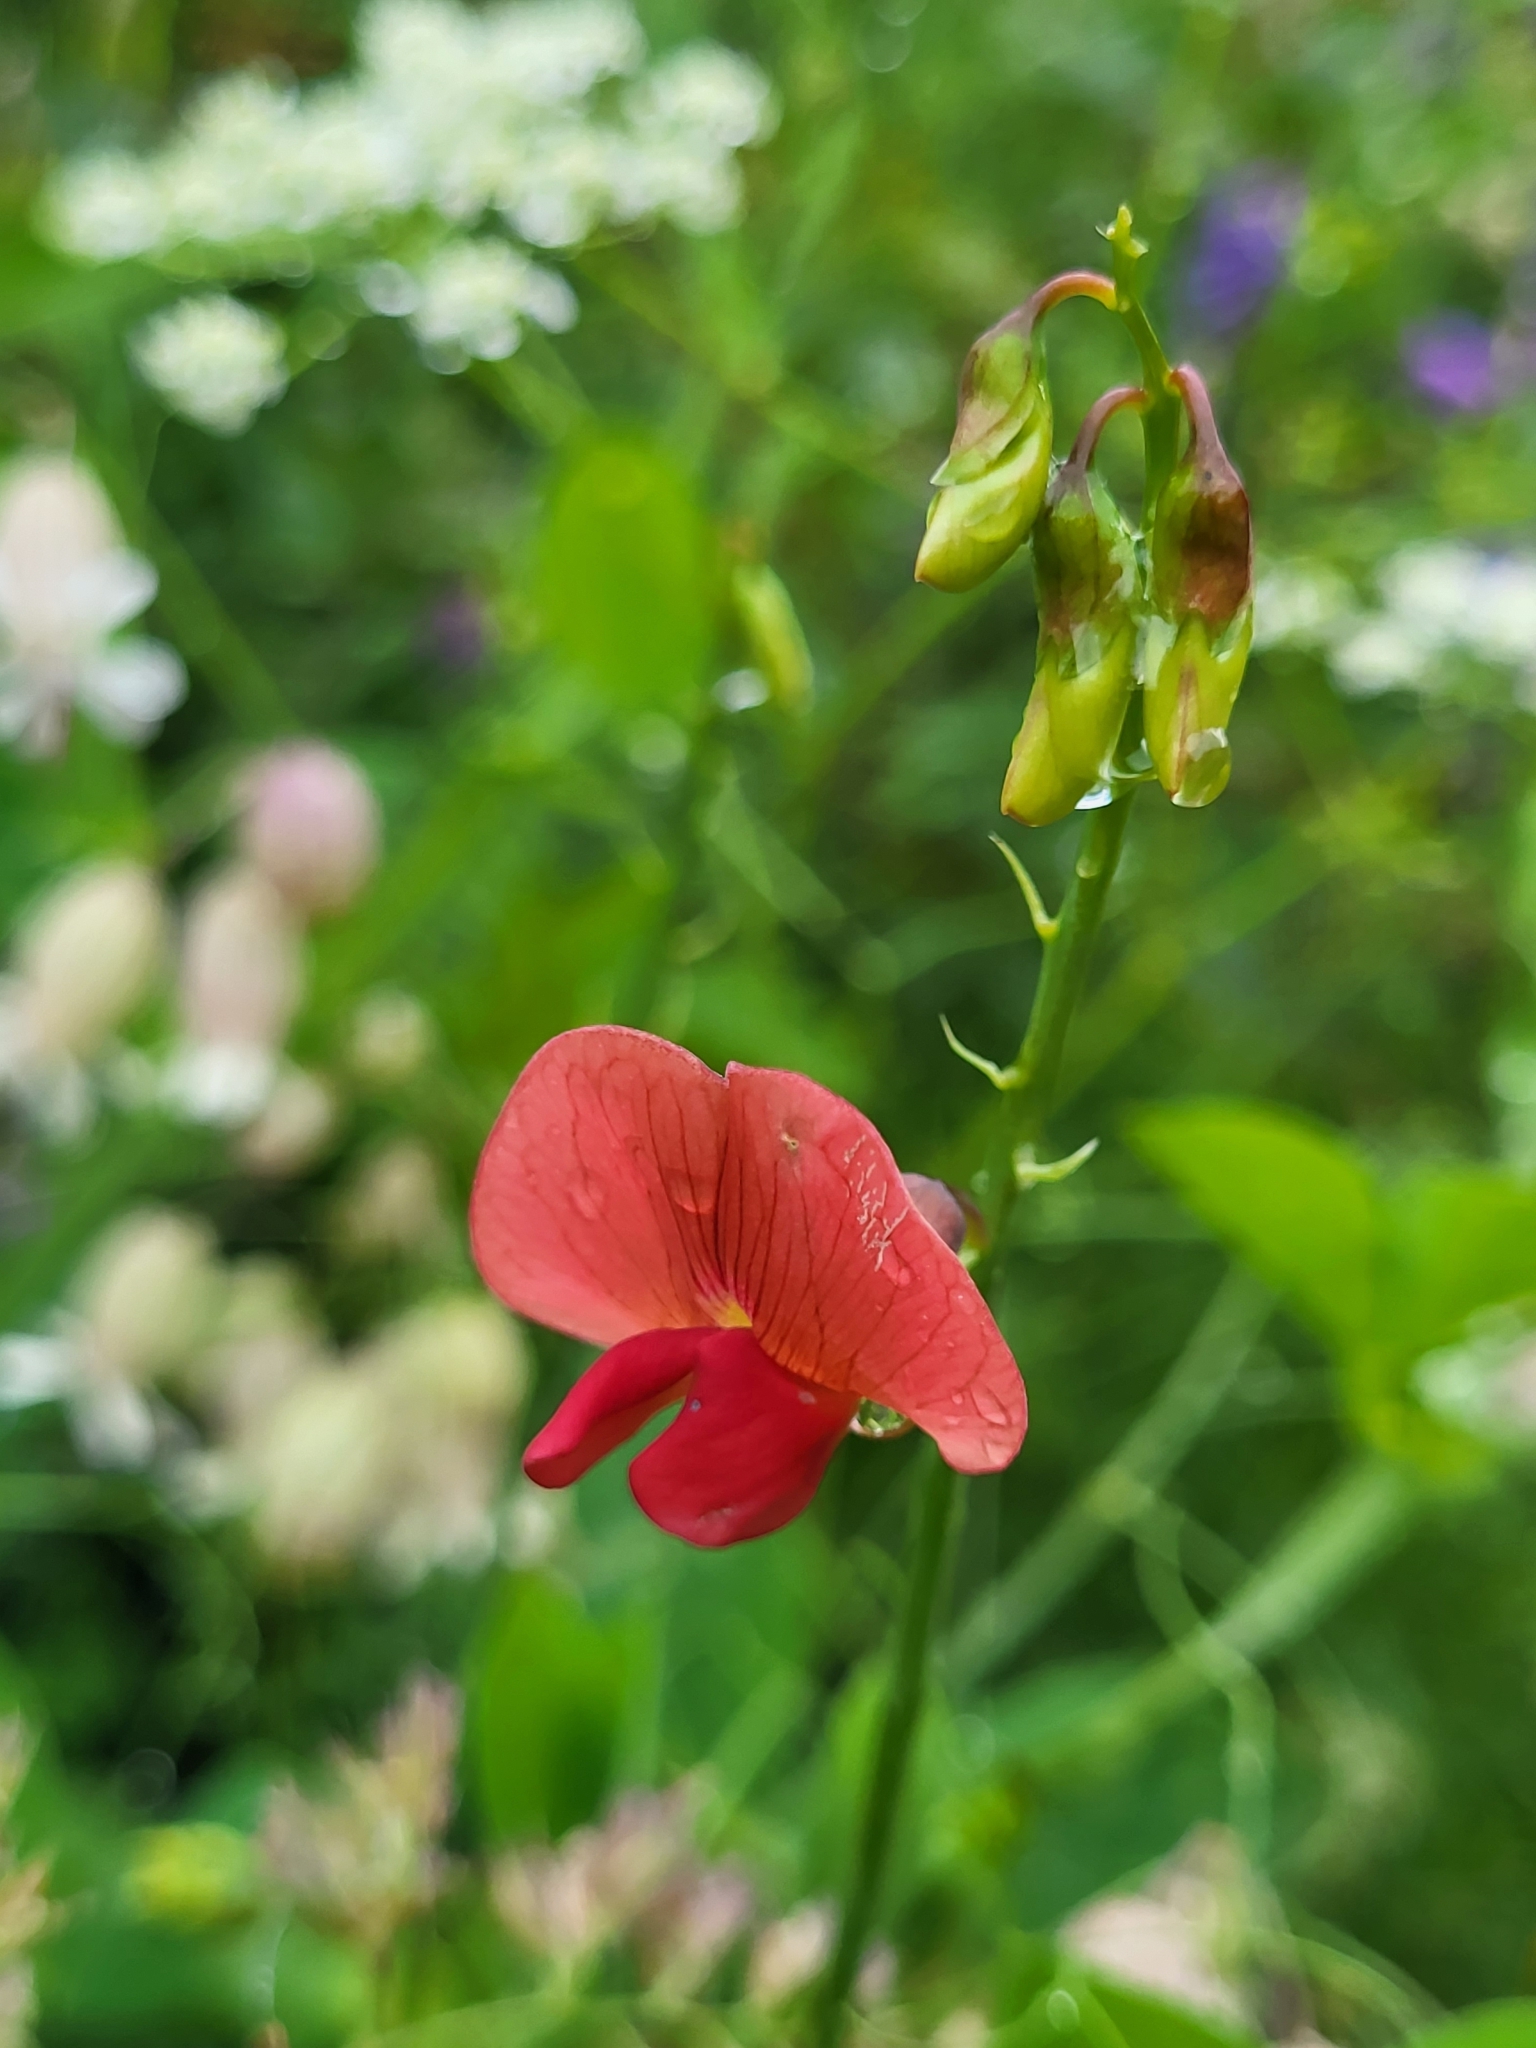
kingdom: Plantae
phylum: Tracheophyta
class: Magnoliopsida
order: Fabales
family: Fabaceae
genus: Lathyrus
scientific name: Lathyrus rotundifolius
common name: Round-leaf vetchling
